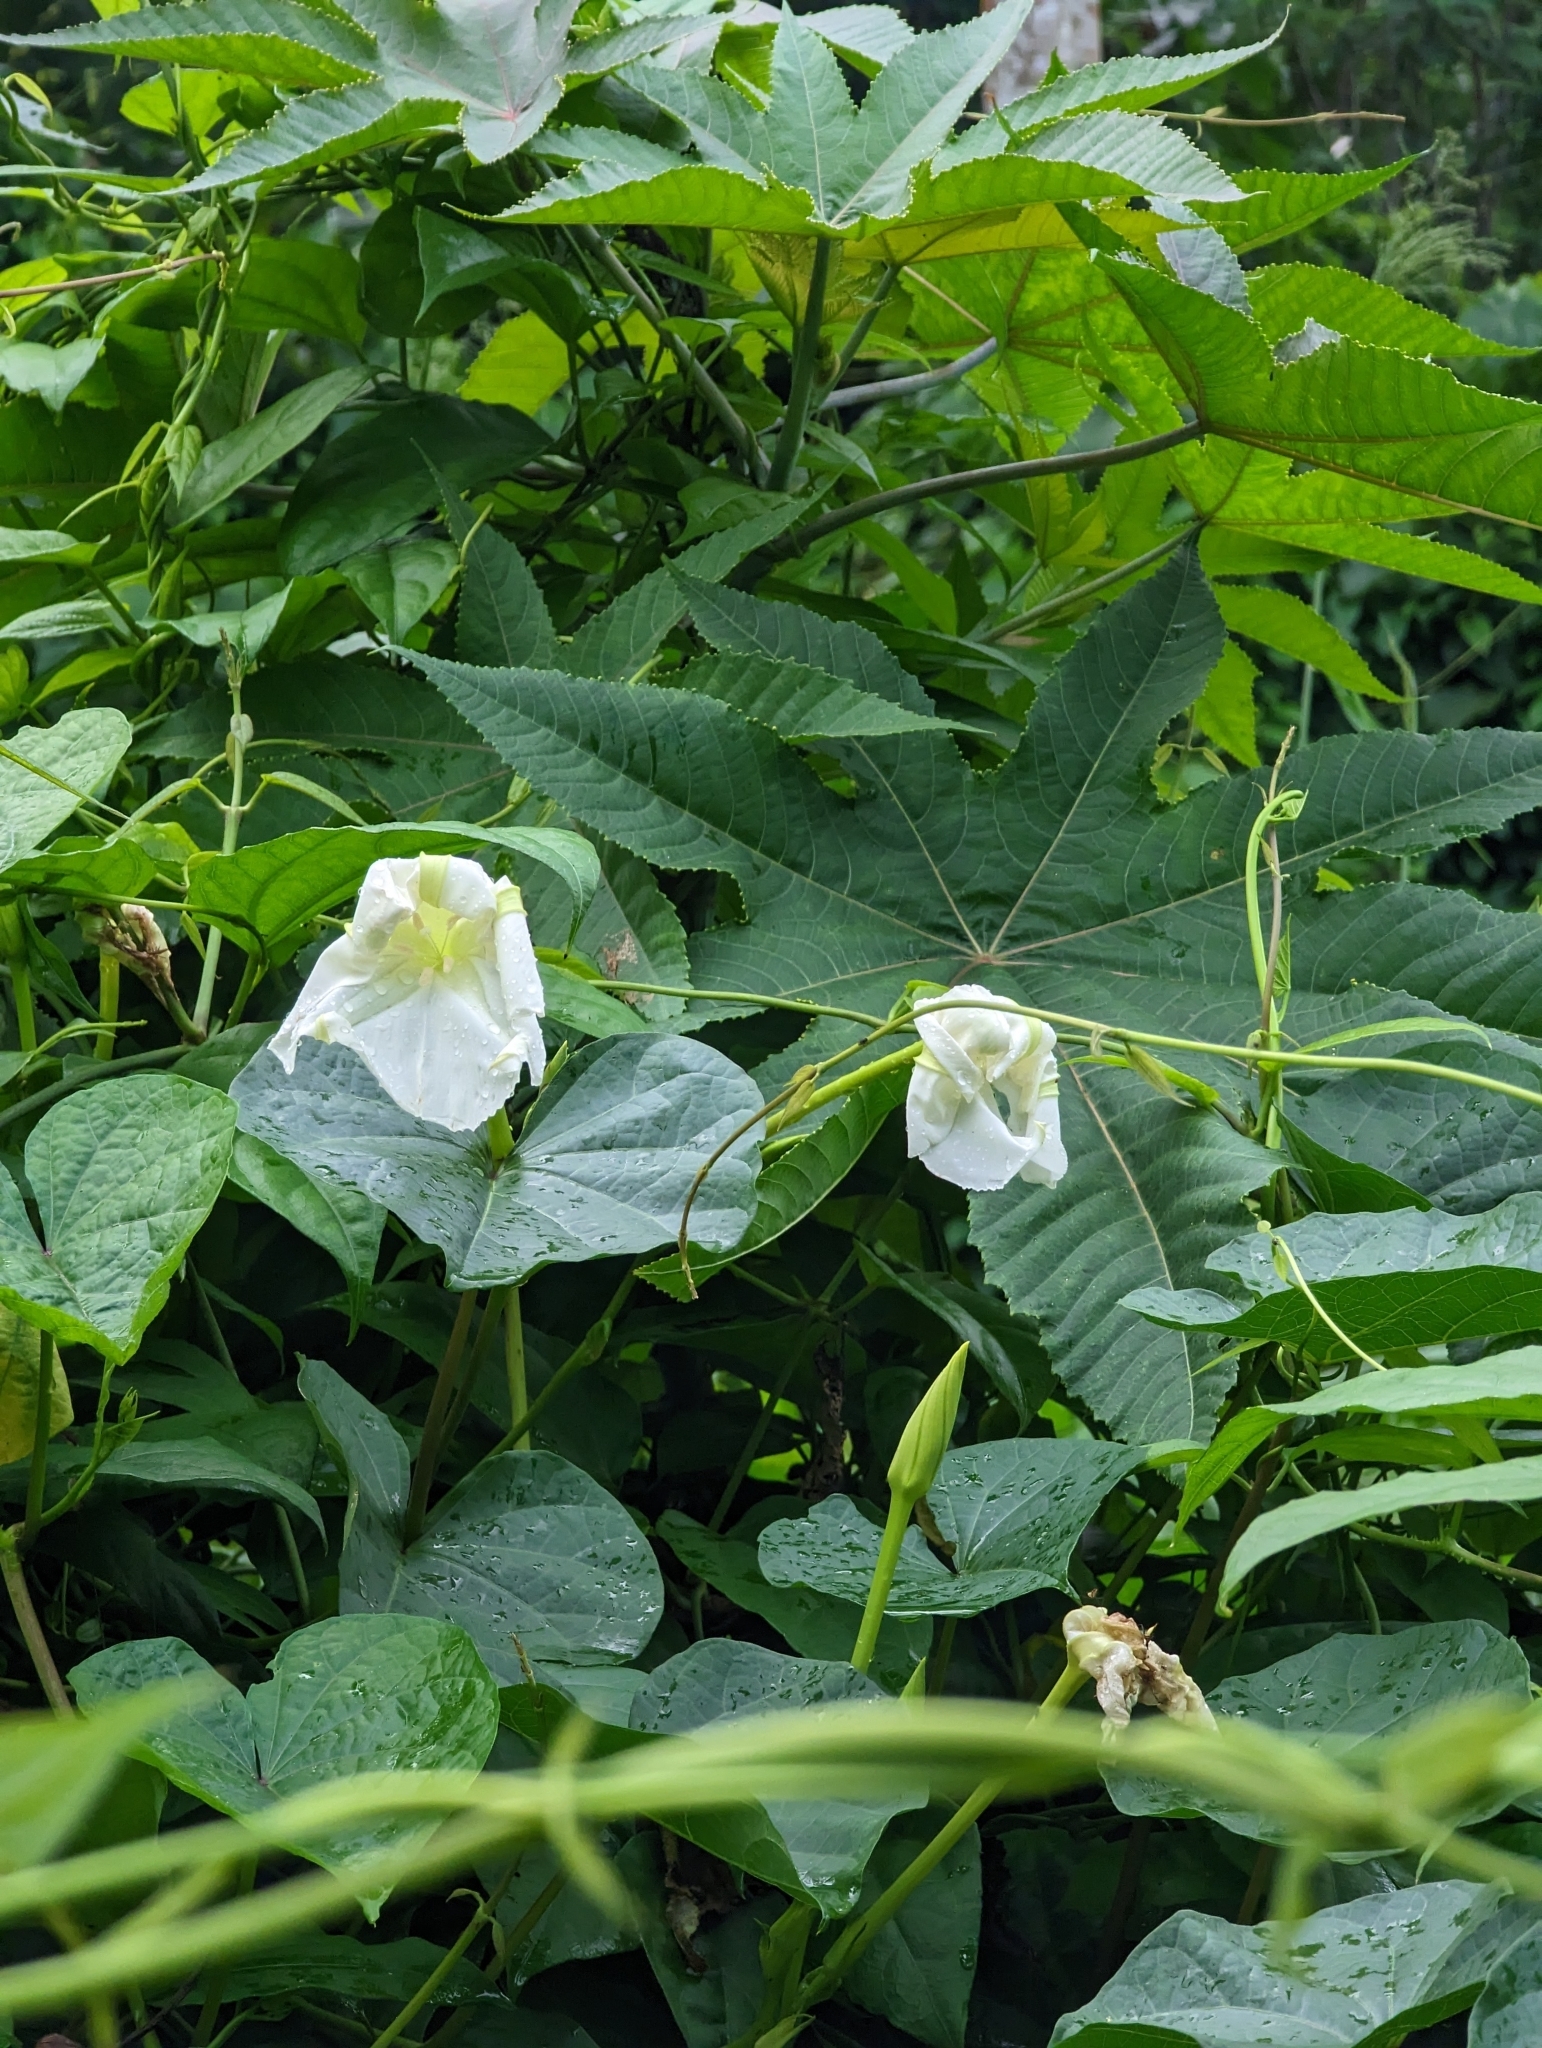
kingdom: Plantae
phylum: Tracheophyta
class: Magnoliopsida
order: Solanales
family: Convolvulaceae
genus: Ipomoea
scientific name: Ipomoea alba
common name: Moonflower
